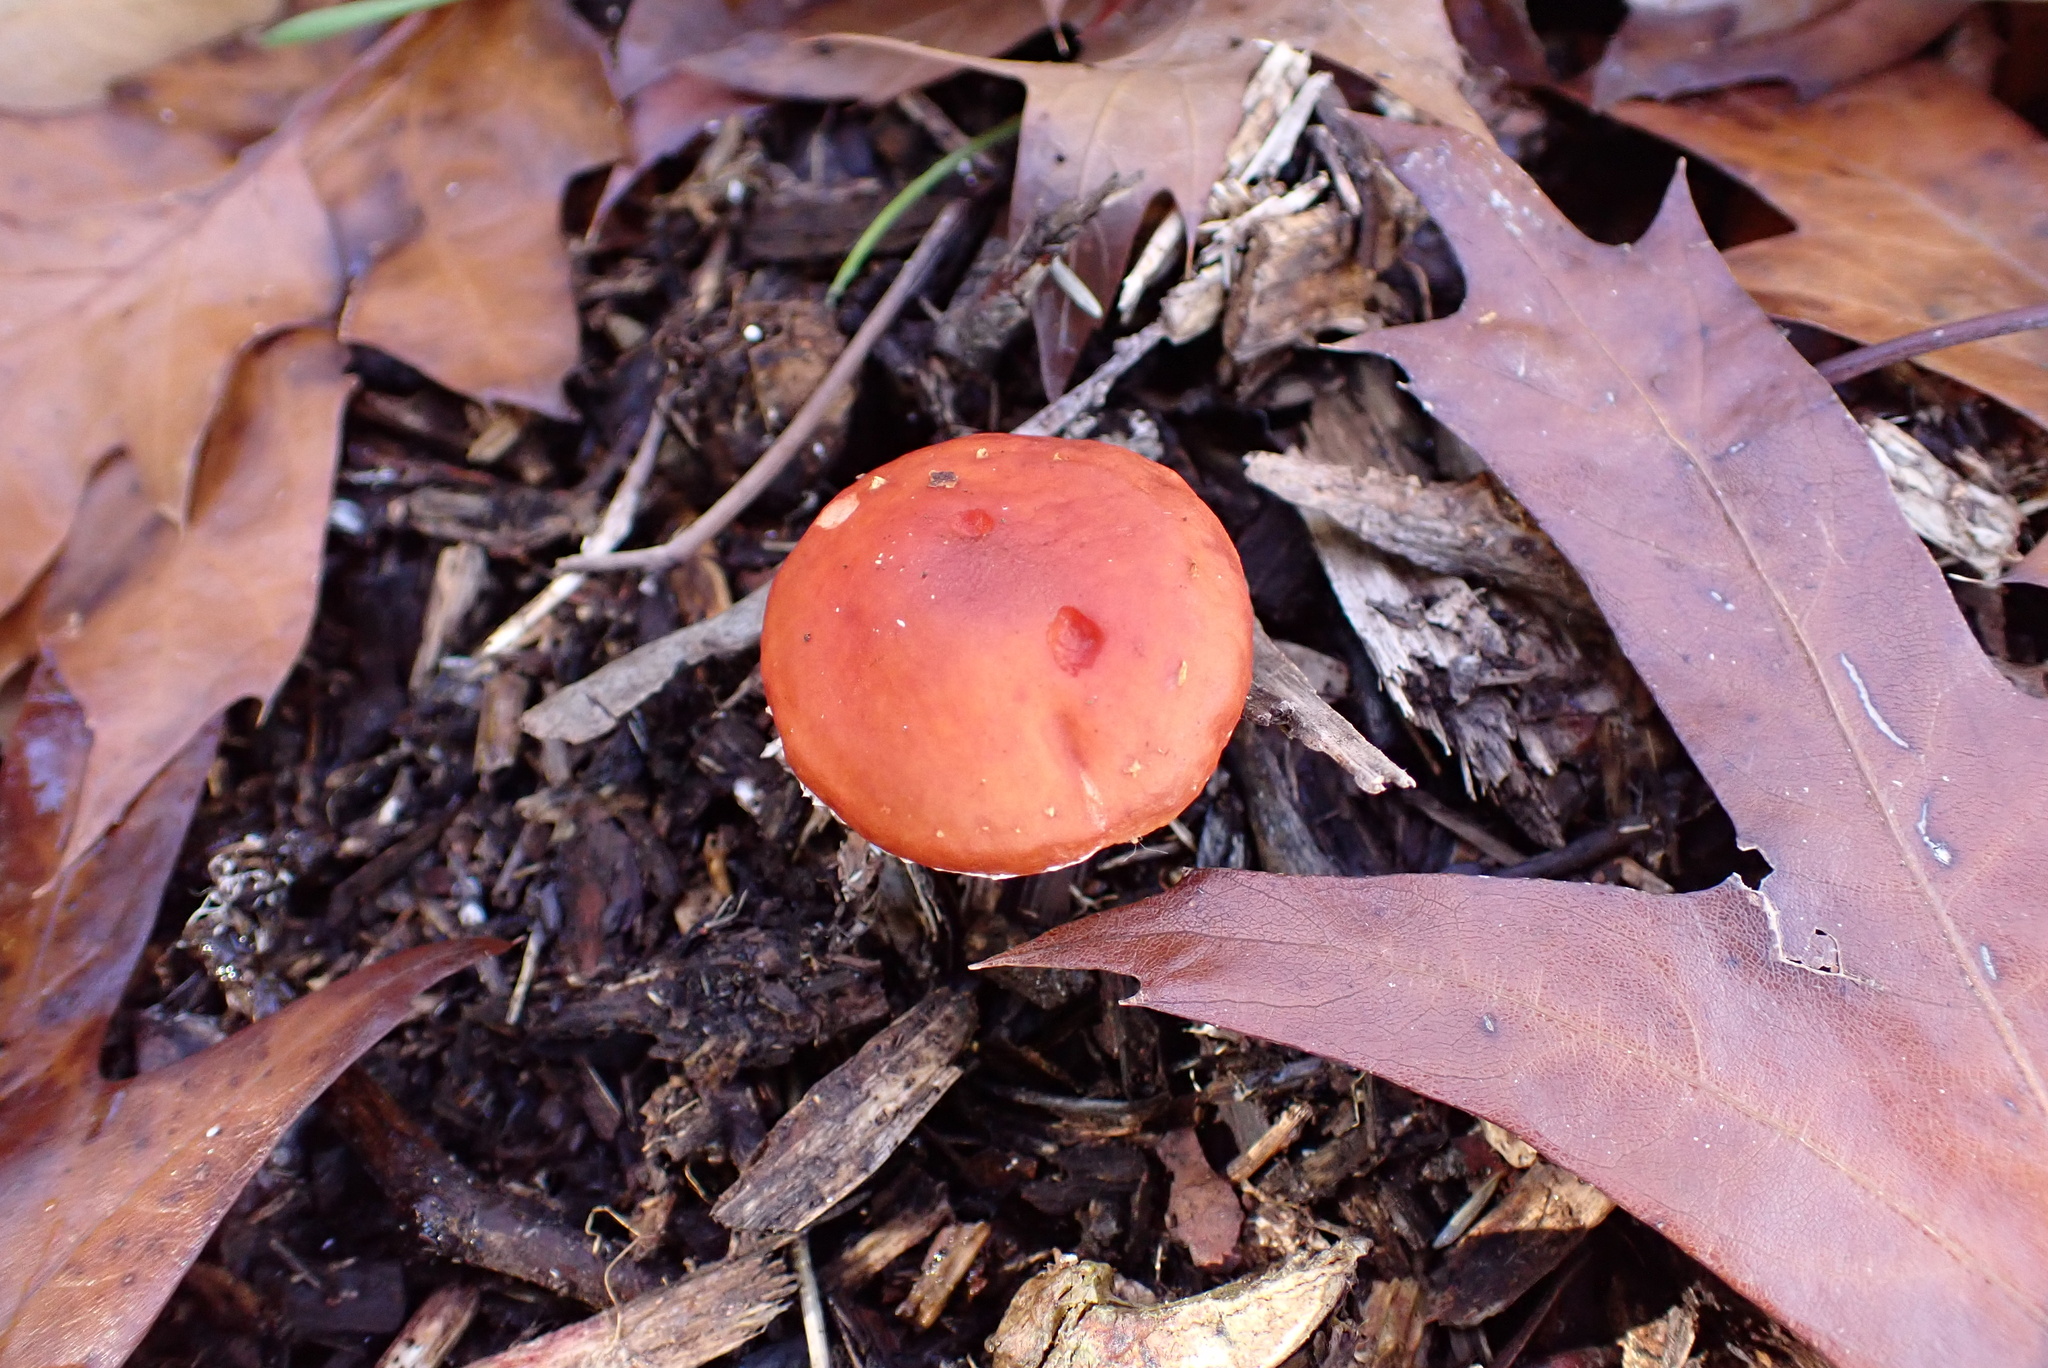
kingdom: Fungi
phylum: Basidiomycota
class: Agaricomycetes
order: Agaricales
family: Strophariaceae
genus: Leratiomyces
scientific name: Leratiomyces ceres
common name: Redlead roundhead
